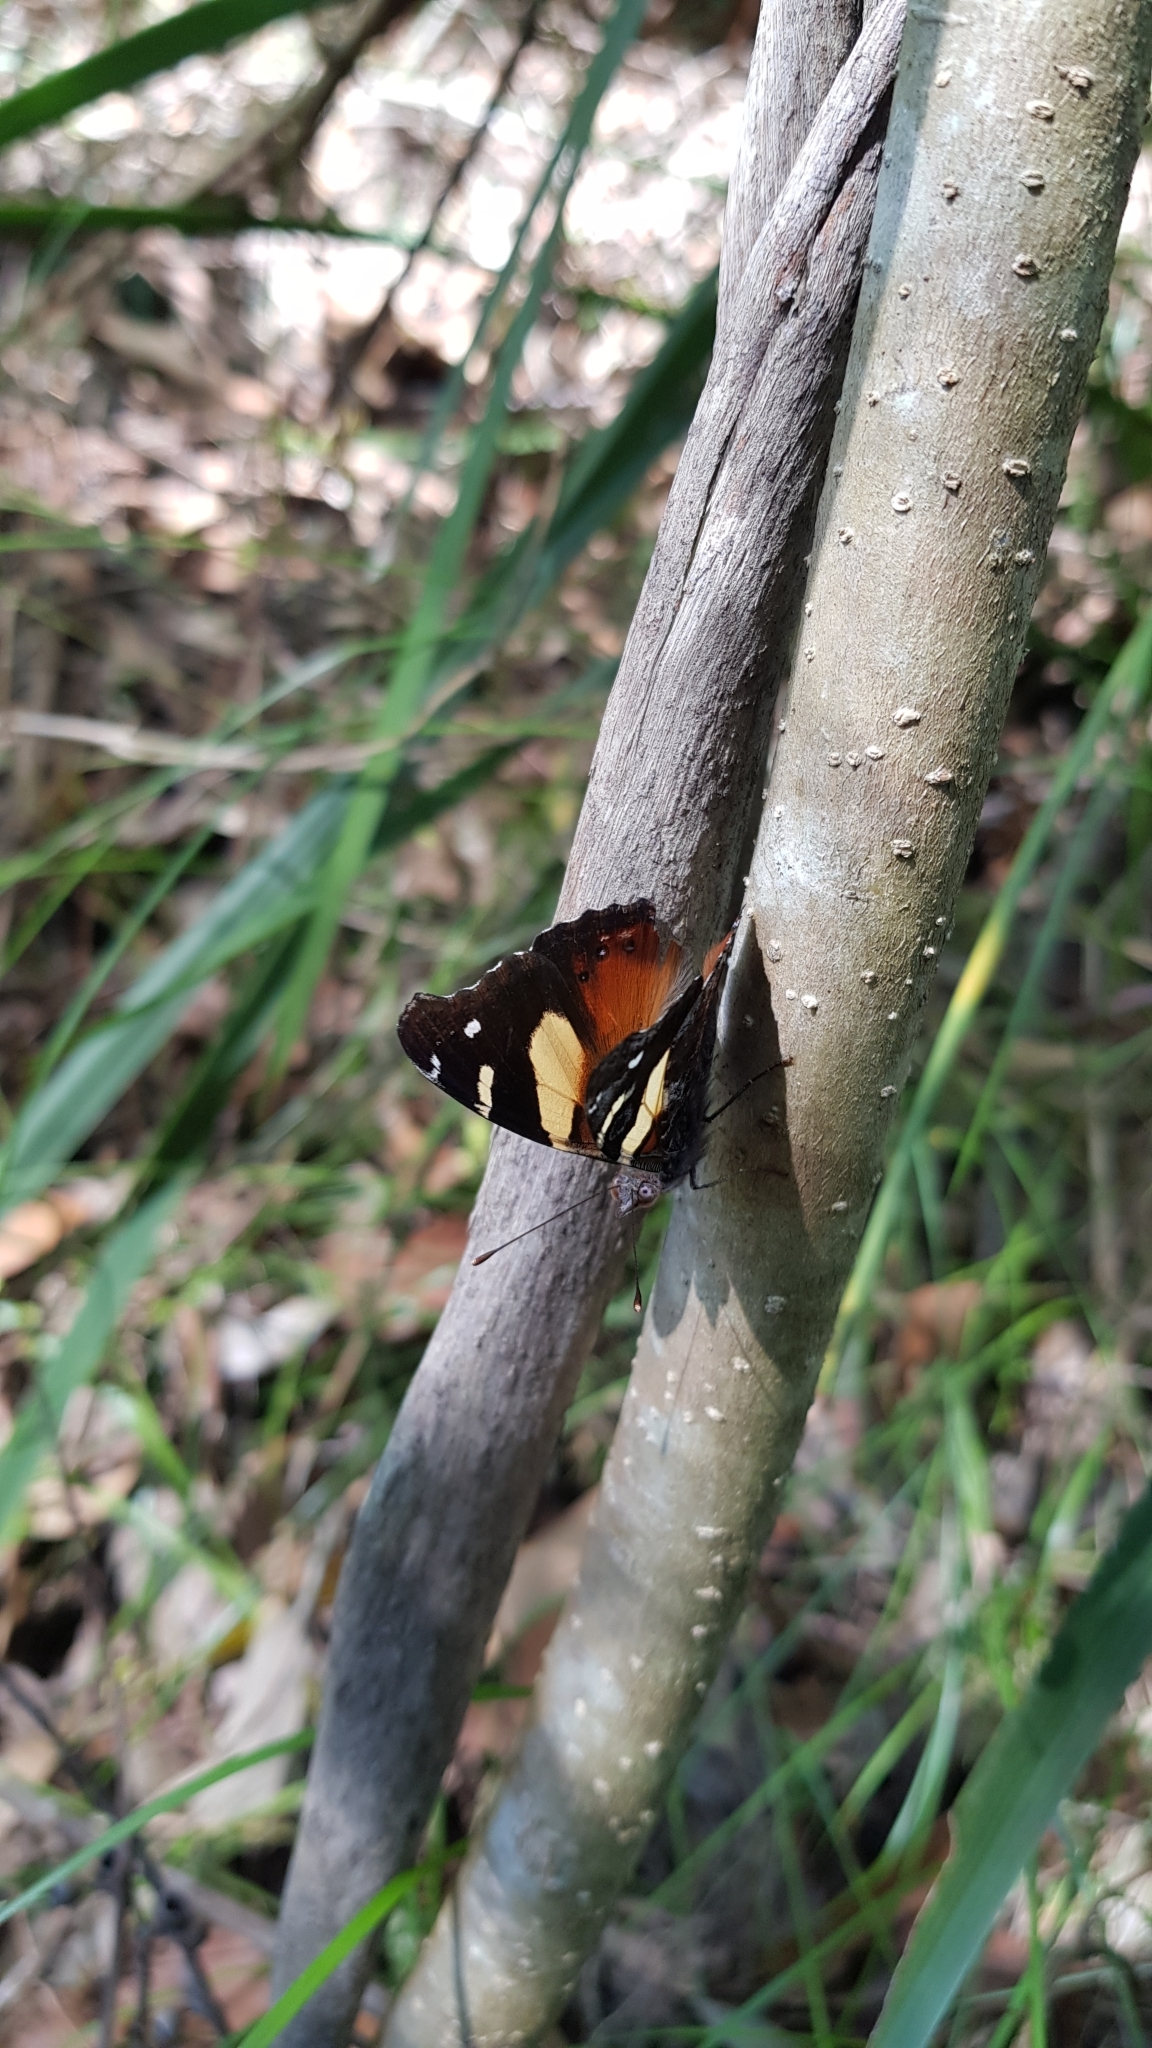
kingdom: Animalia
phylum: Arthropoda
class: Insecta
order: Lepidoptera
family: Nymphalidae
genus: Vanessa
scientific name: Vanessa itea
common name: Yellow admiral
